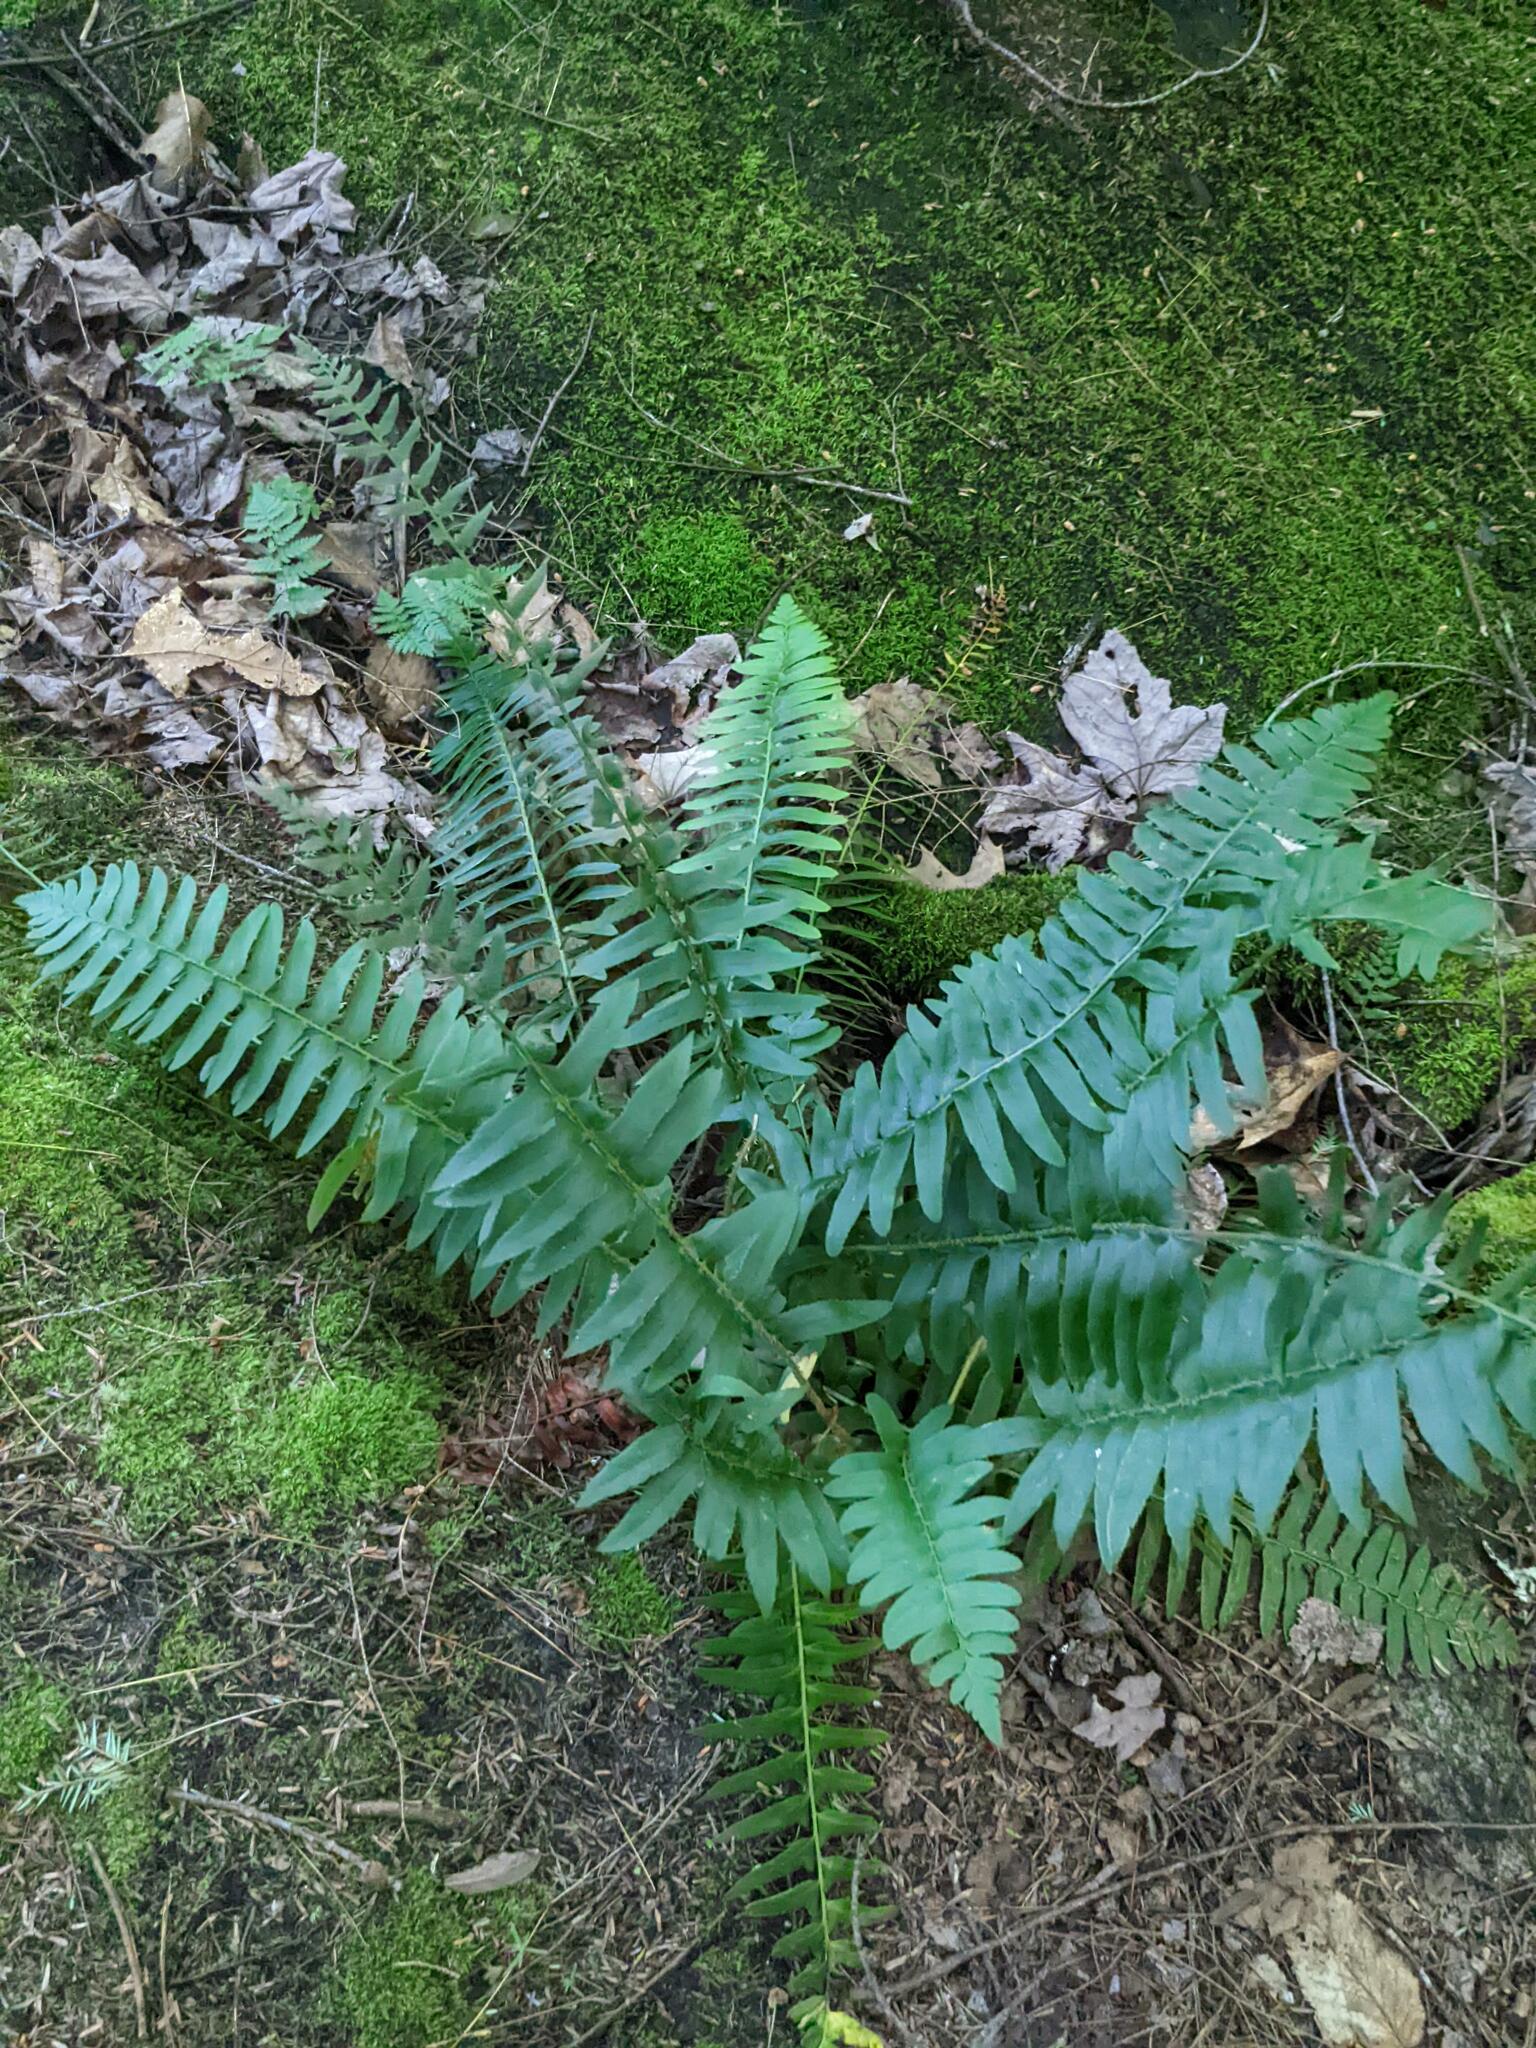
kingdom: Plantae
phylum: Tracheophyta
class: Polypodiopsida
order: Polypodiales
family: Dryopteridaceae
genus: Polystichum
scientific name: Polystichum acrostichoides
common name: Christmas fern
